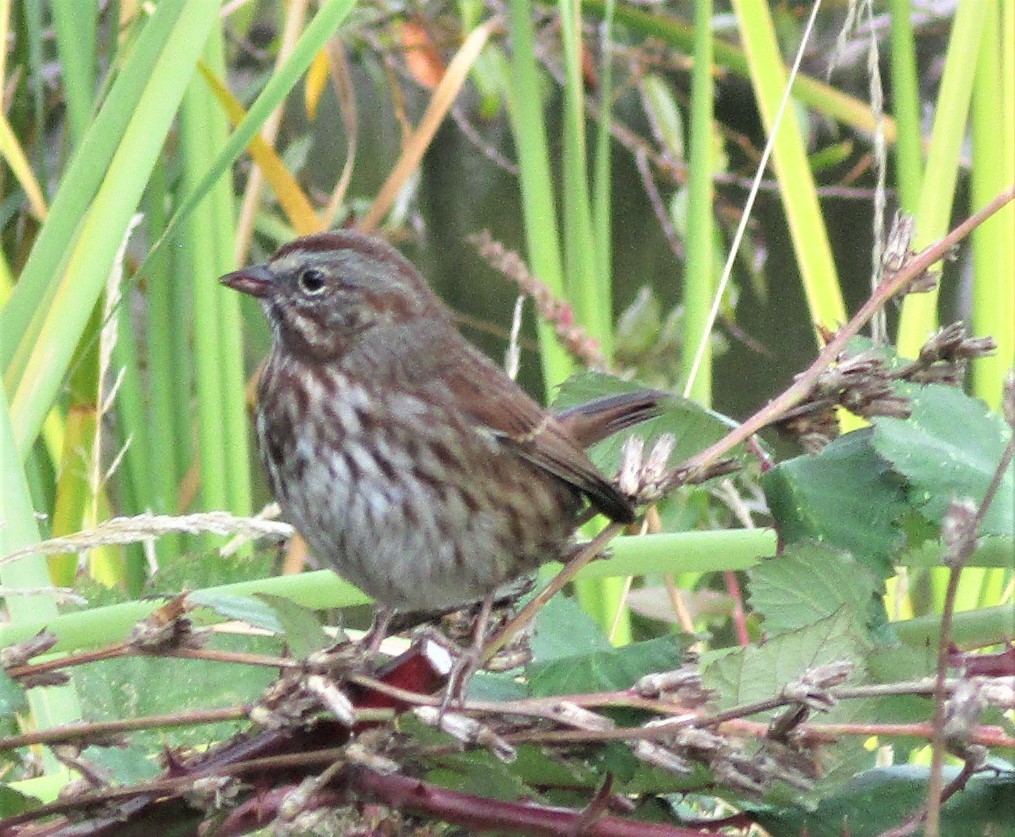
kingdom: Animalia
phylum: Chordata
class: Aves
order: Passeriformes
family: Passerellidae
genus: Melospiza
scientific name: Melospiza melodia
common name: Song sparrow
